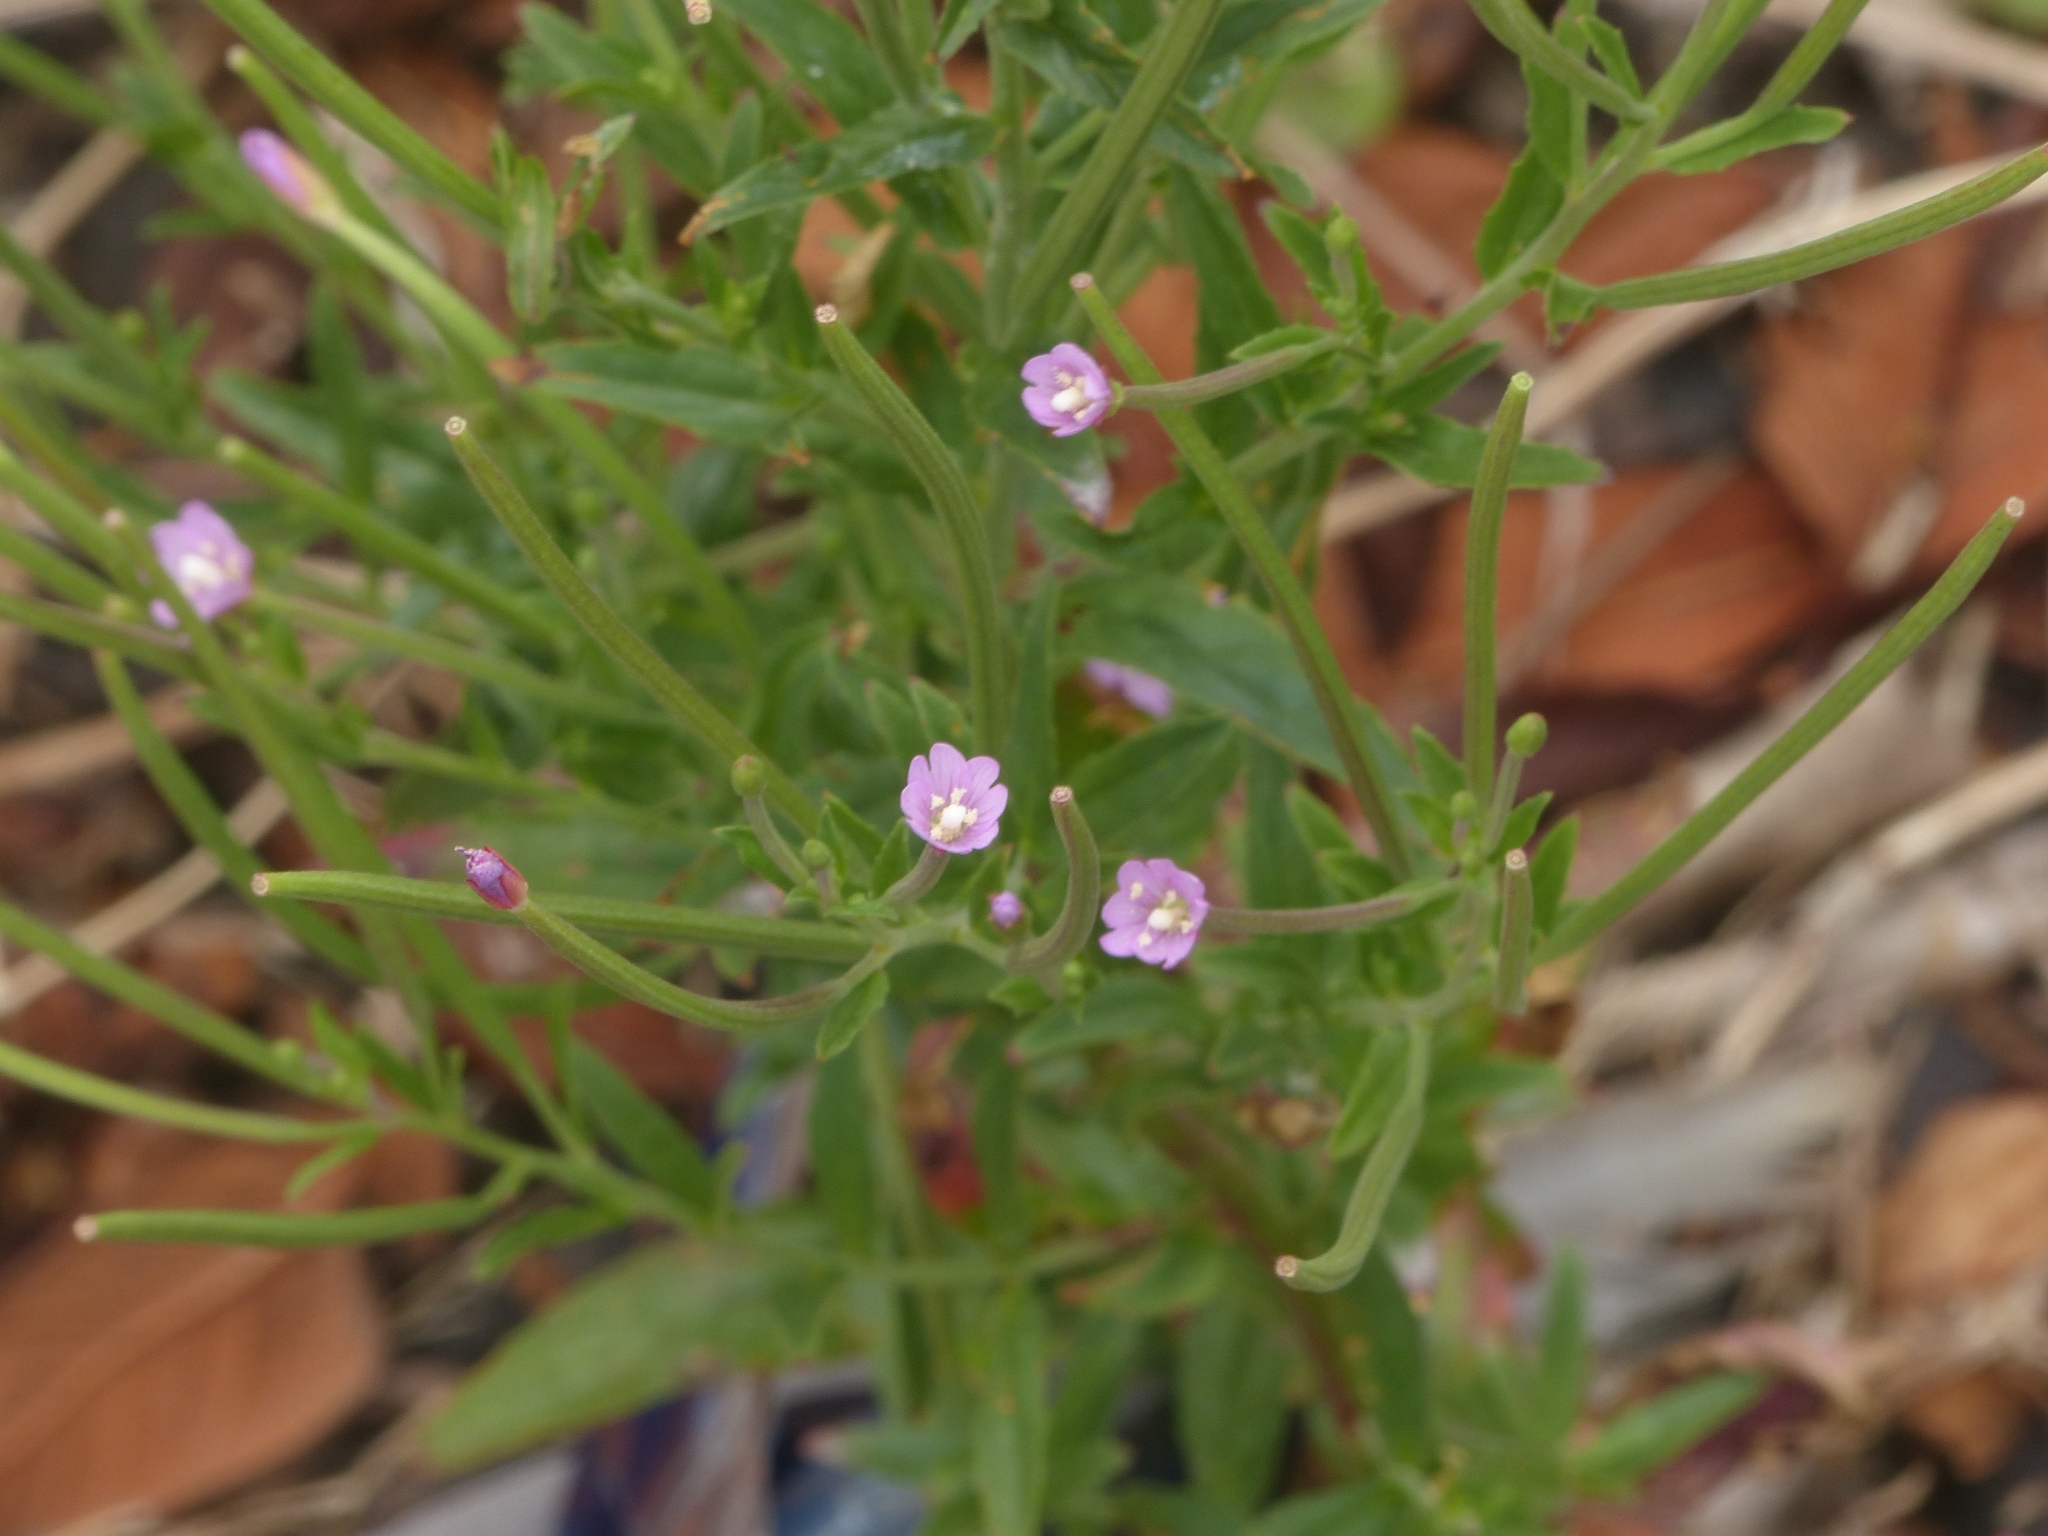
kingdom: Plantae
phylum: Tracheophyta
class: Magnoliopsida
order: Myrtales
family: Onagraceae
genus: Epilobium
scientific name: Epilobium tetragonum
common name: Square-stemmed willowherb
